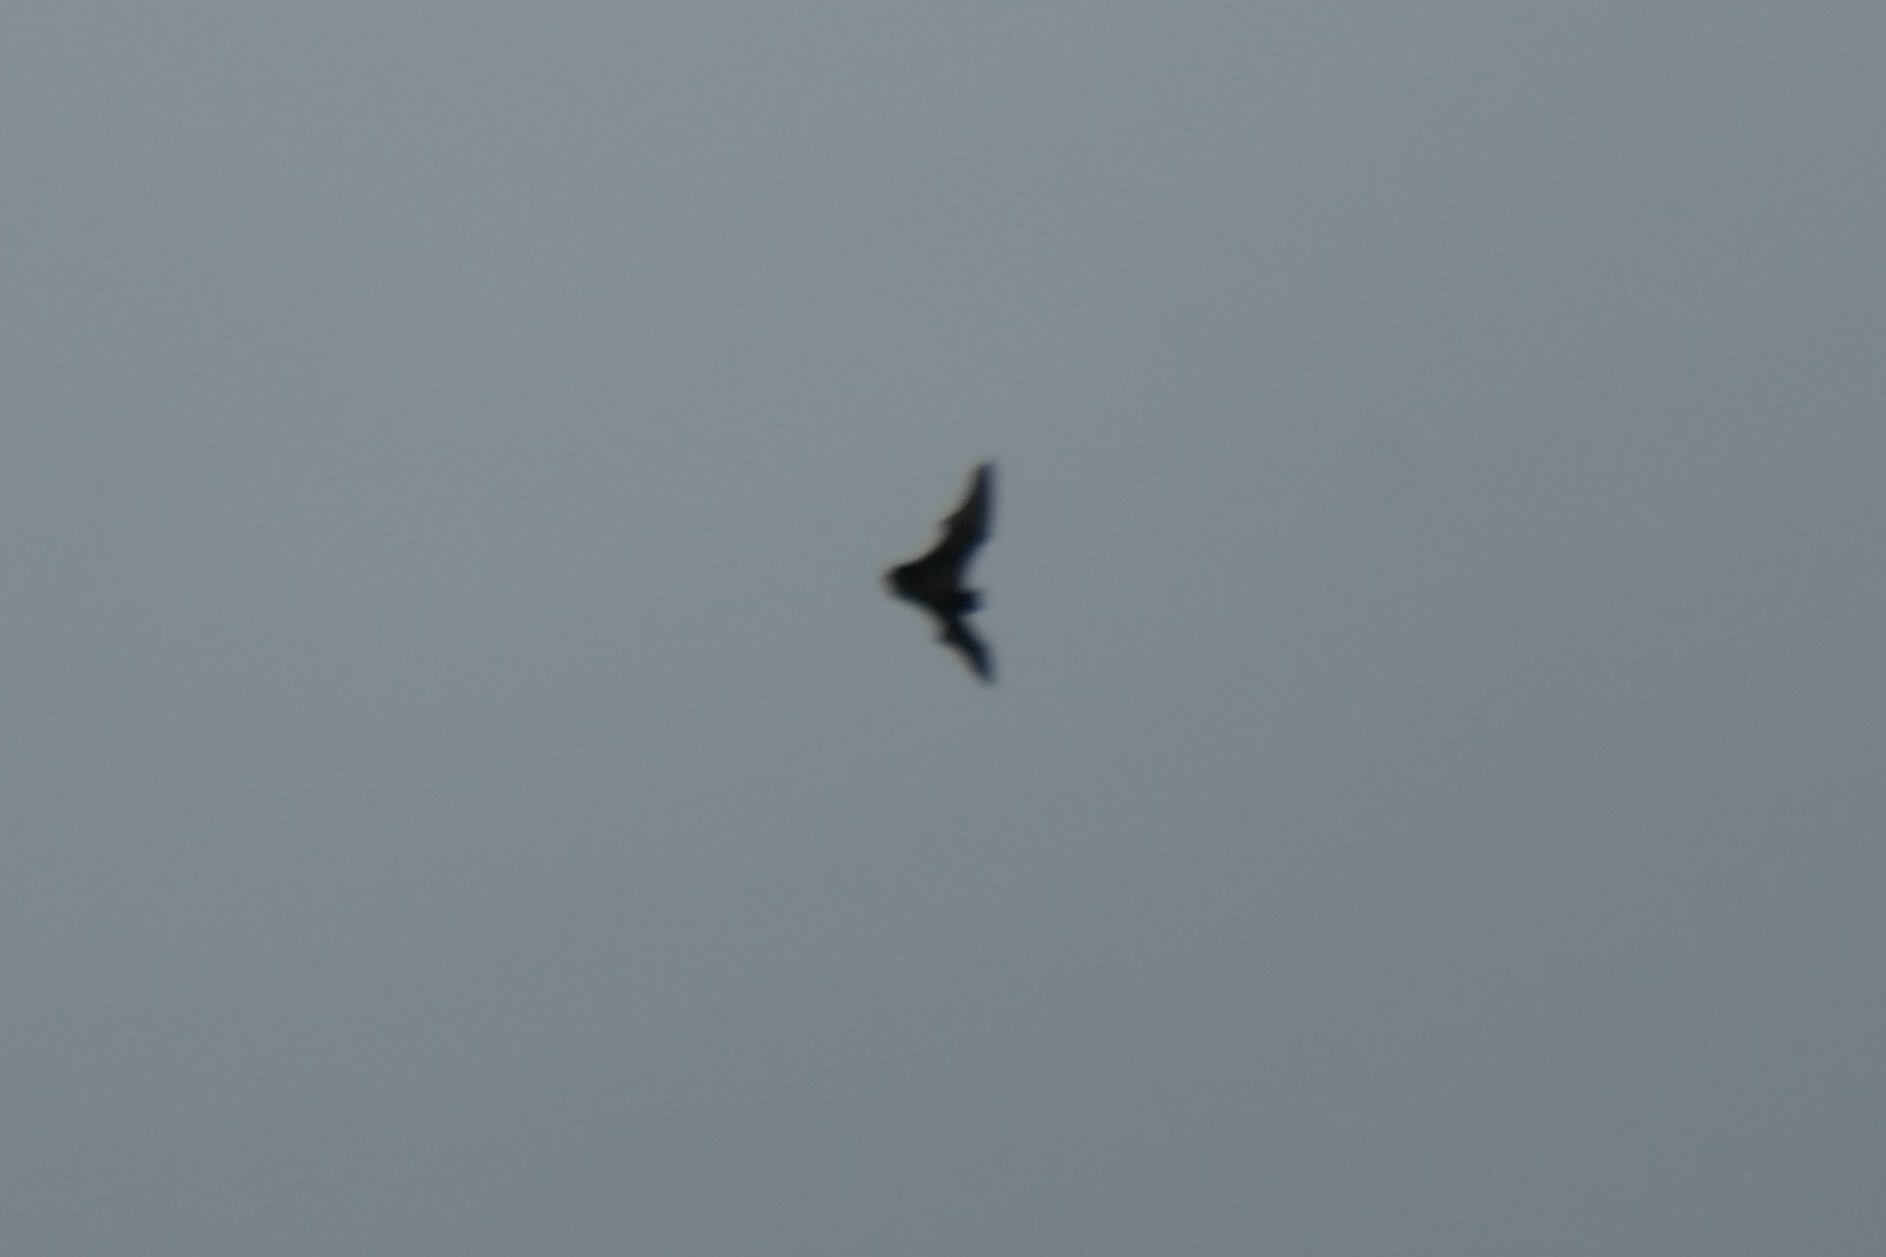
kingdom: Animalia
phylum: Chordata
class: Mammalia
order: Chiroptera
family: Vespertilionidae
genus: Nyctalus
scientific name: Nyctalus azoreum
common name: Azores noctule
